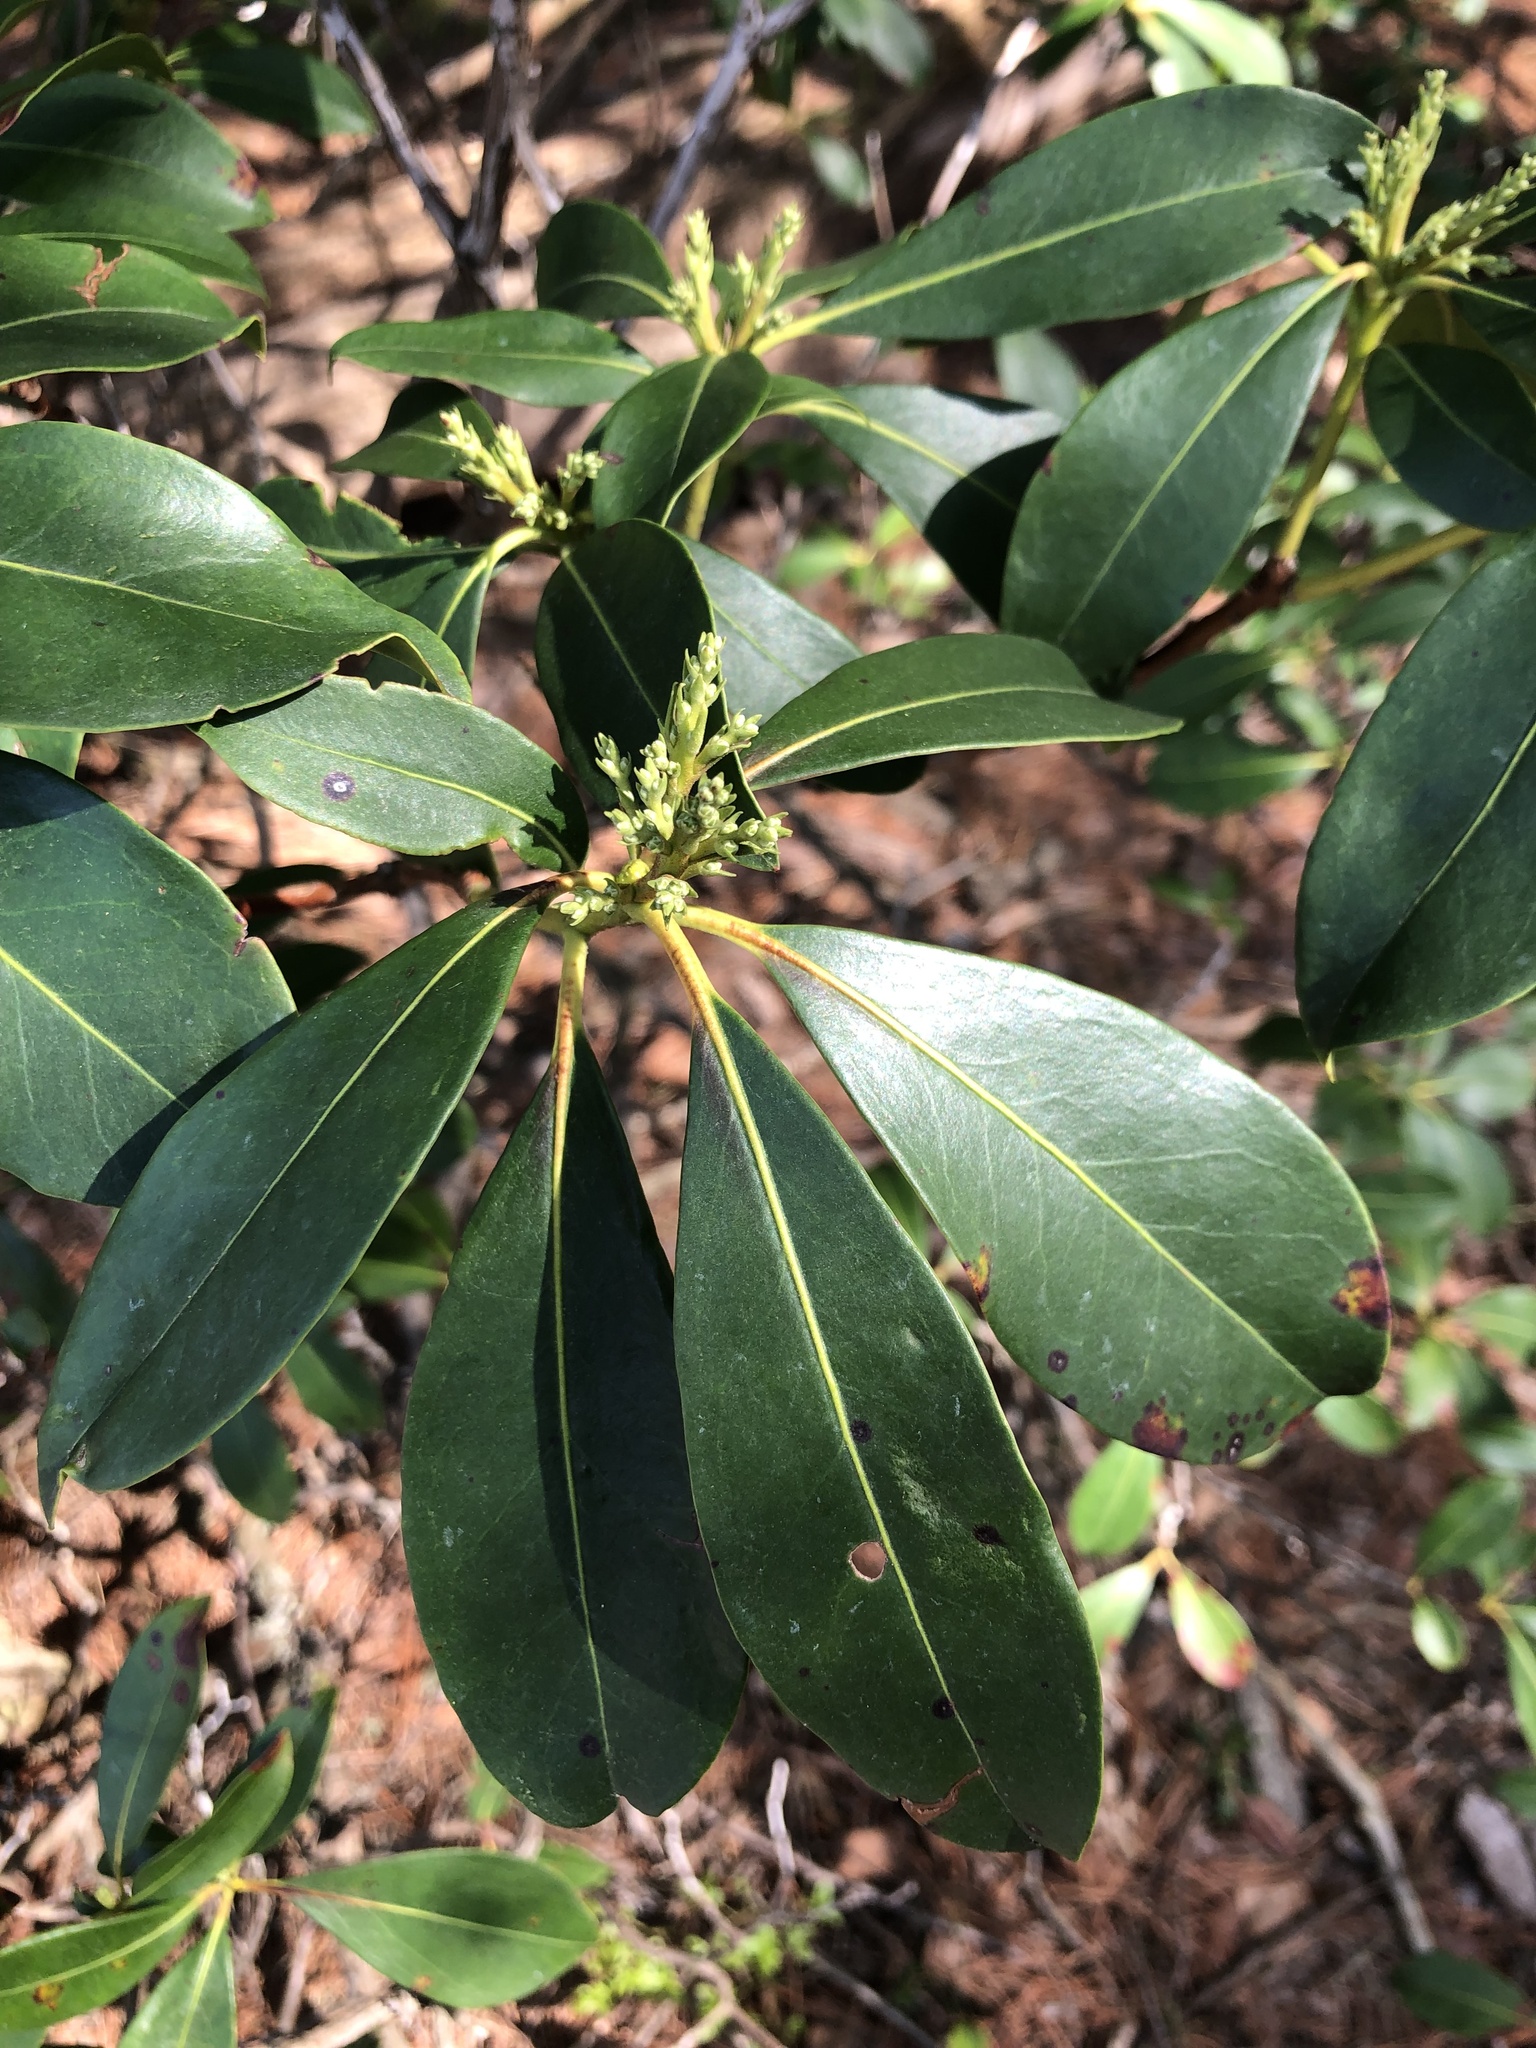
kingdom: Plantae
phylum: Tracheophyta
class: Magnoliopsida
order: Ericales
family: Ericaceae
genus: Kalmia
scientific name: Kalmia latifolia
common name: Mountain-laurel
